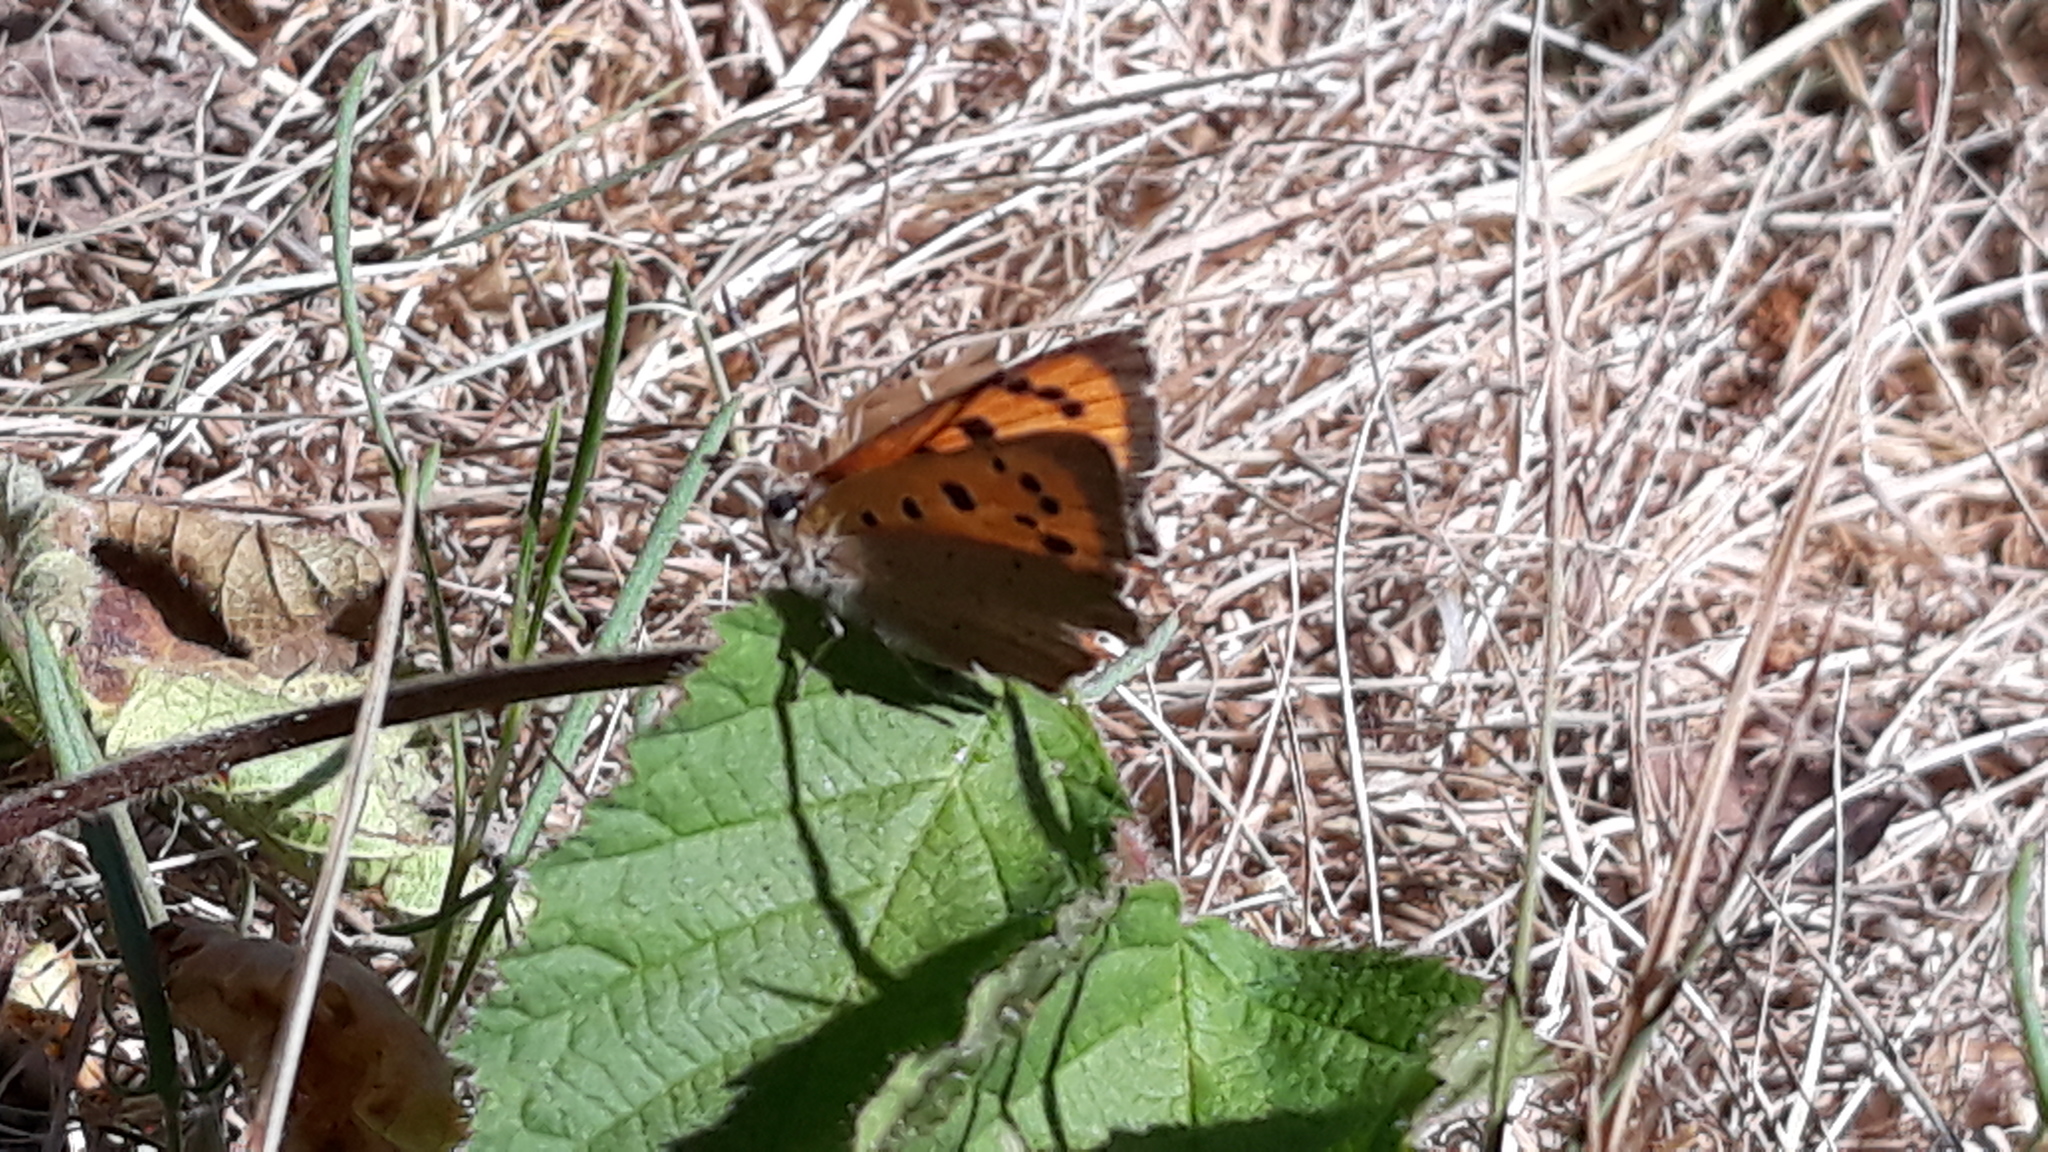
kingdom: Animalia
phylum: Arthropoda
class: Insecta
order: Lepidoptera
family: Lycaenidae
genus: Lycaena
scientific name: Lycaena phlaeas
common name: Small copper
